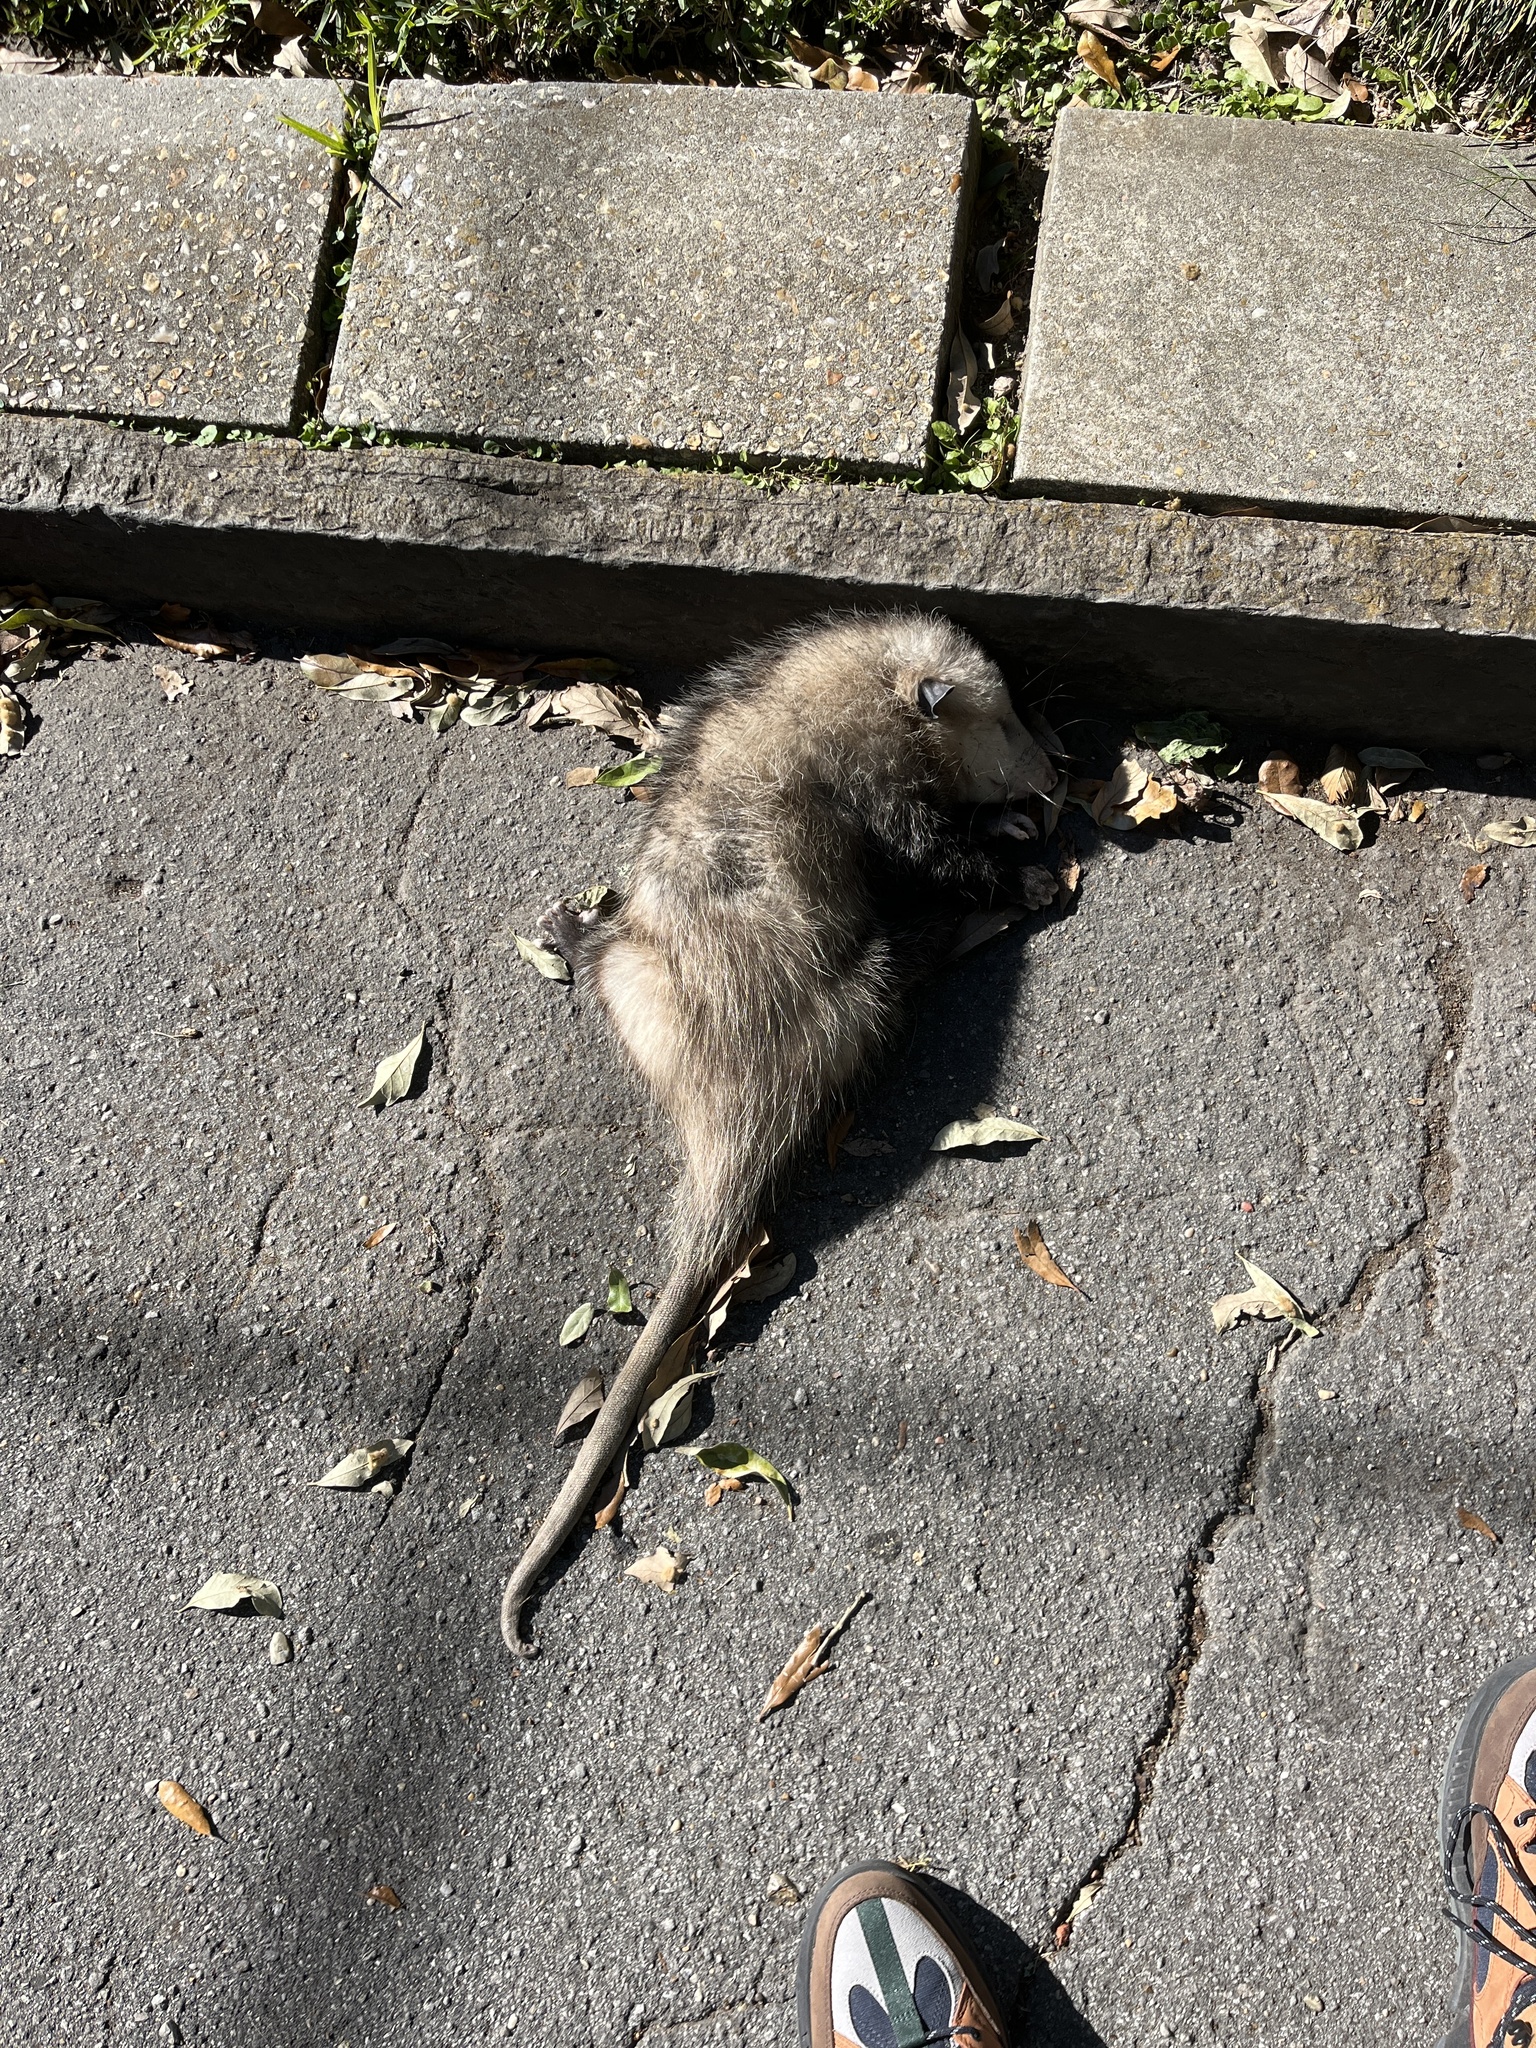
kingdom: Animalia
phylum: Chordata
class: Mammalia
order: Didelphimorphia
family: Didelphidae
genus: Didelphis
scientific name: Didelphis virginiana
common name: Virginia opossum
